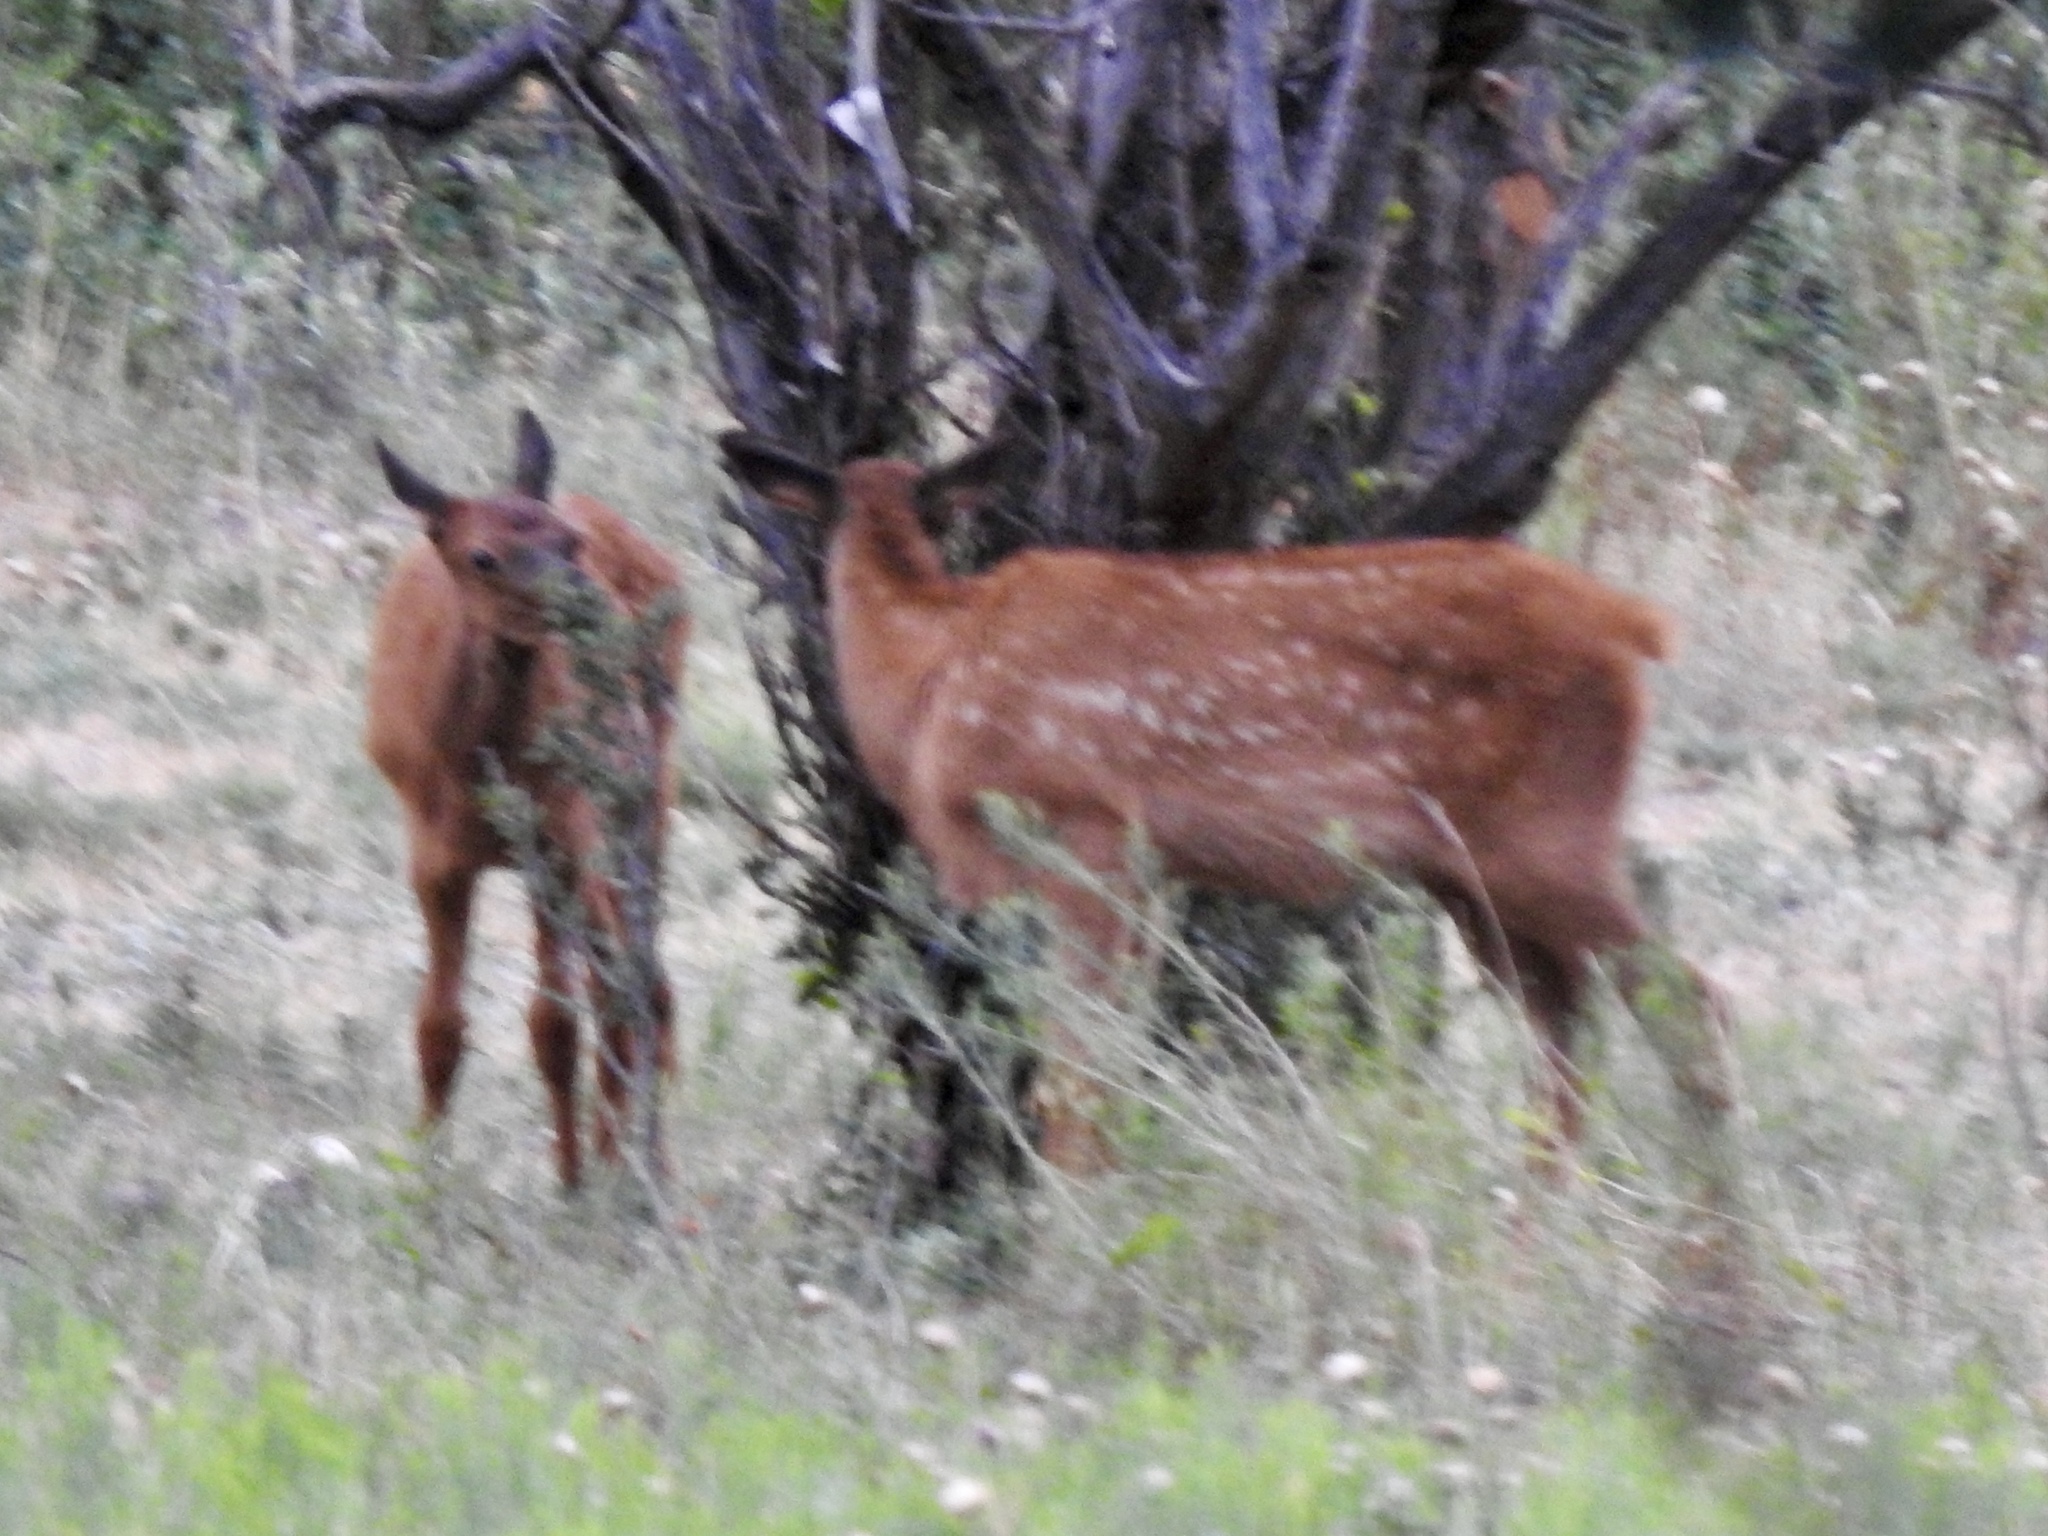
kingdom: Animalia
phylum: Chordata
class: Mammalia
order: Artiodactyla
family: Cervidae
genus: Cervus
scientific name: Cervus elaphus
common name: Red deer
